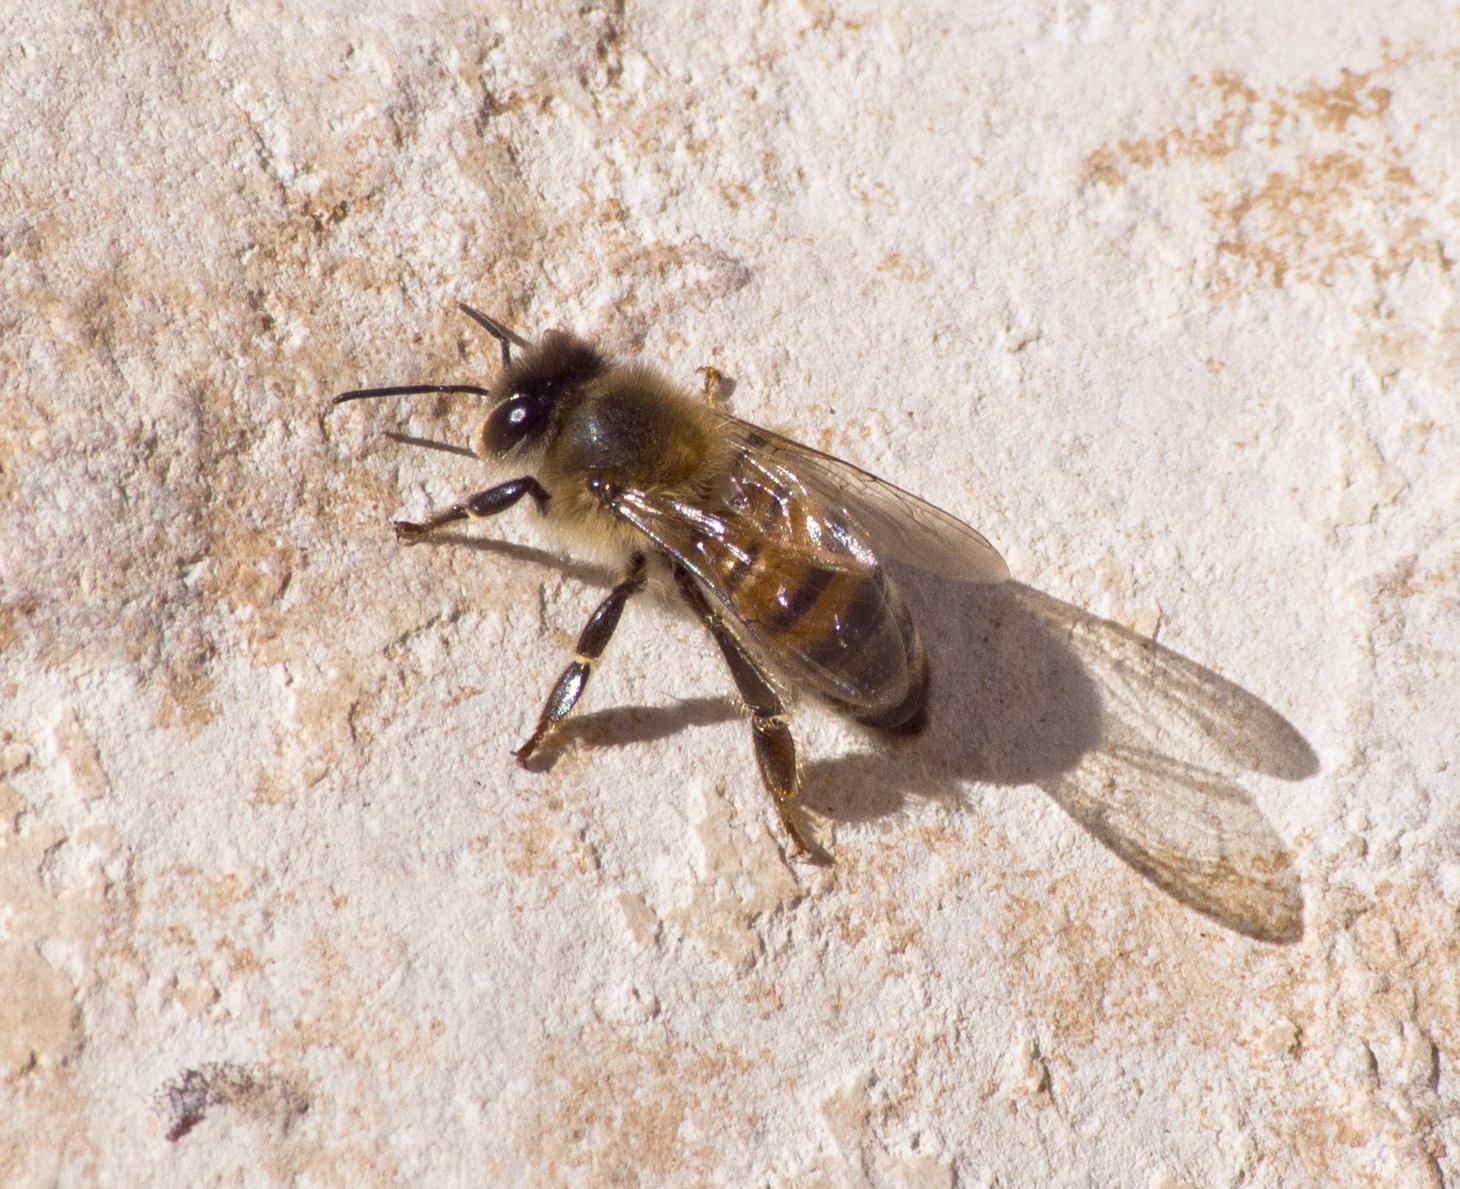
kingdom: Animalia
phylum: Arthropoda
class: Insecta
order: Hymenoptera
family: Apidae
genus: Apis
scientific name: Apis mellifera
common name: Honey bee
